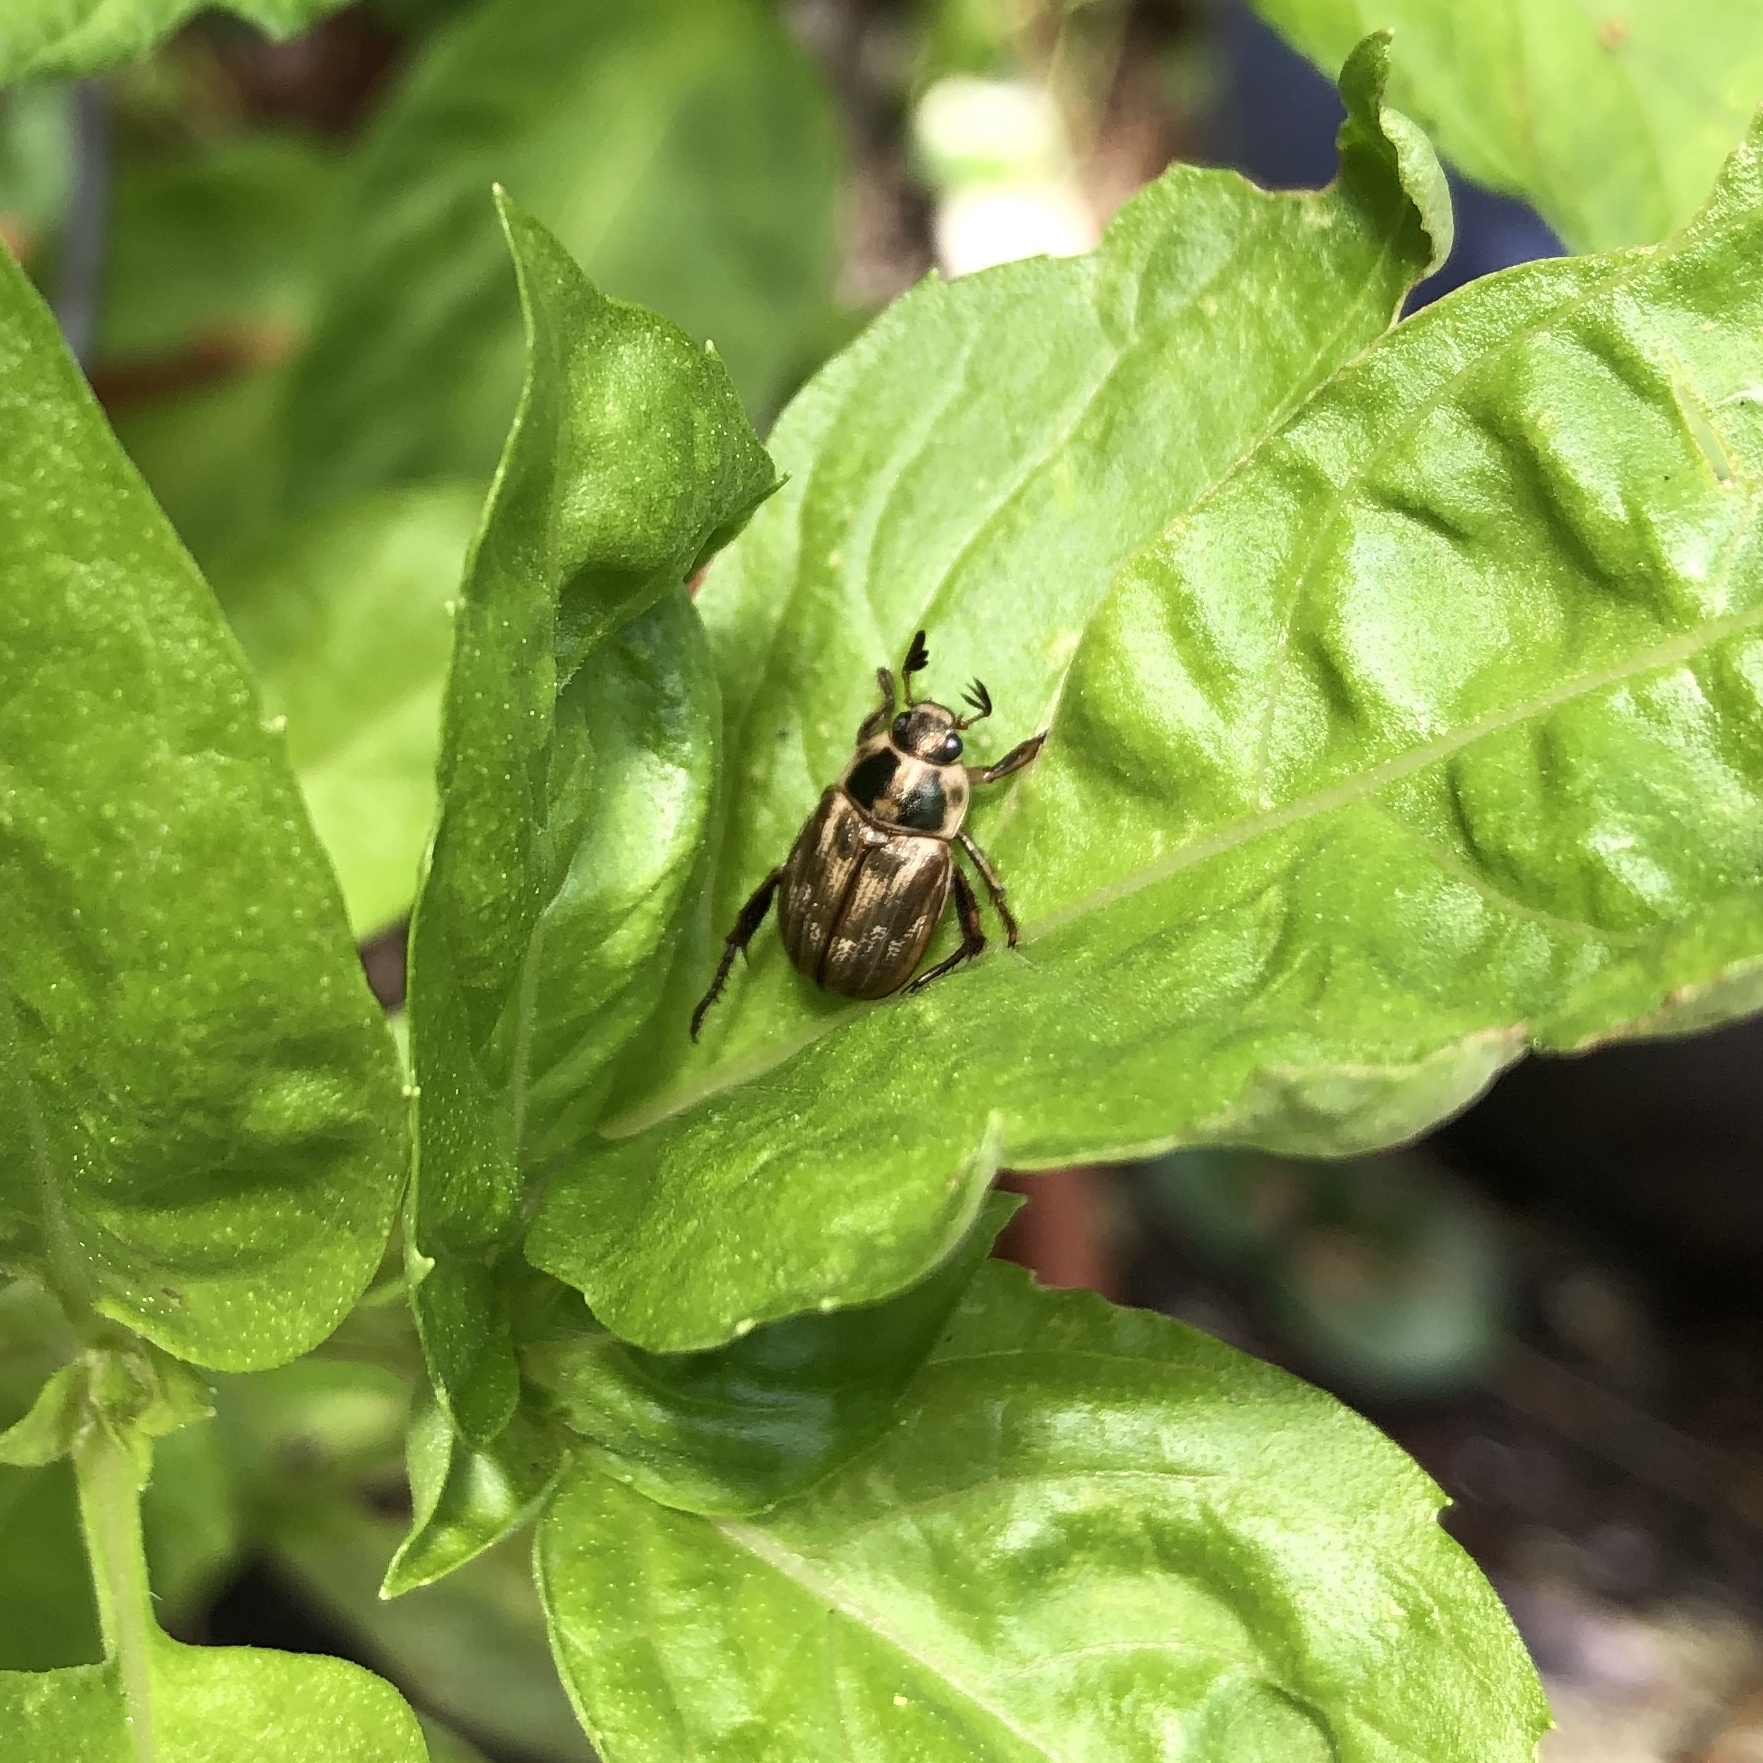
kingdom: Animalia
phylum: Arthropoda
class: Insecta
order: Coleoptera
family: Scarabaeidae
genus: Exomala
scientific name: Exomala orientalis
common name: Oriental beetle
